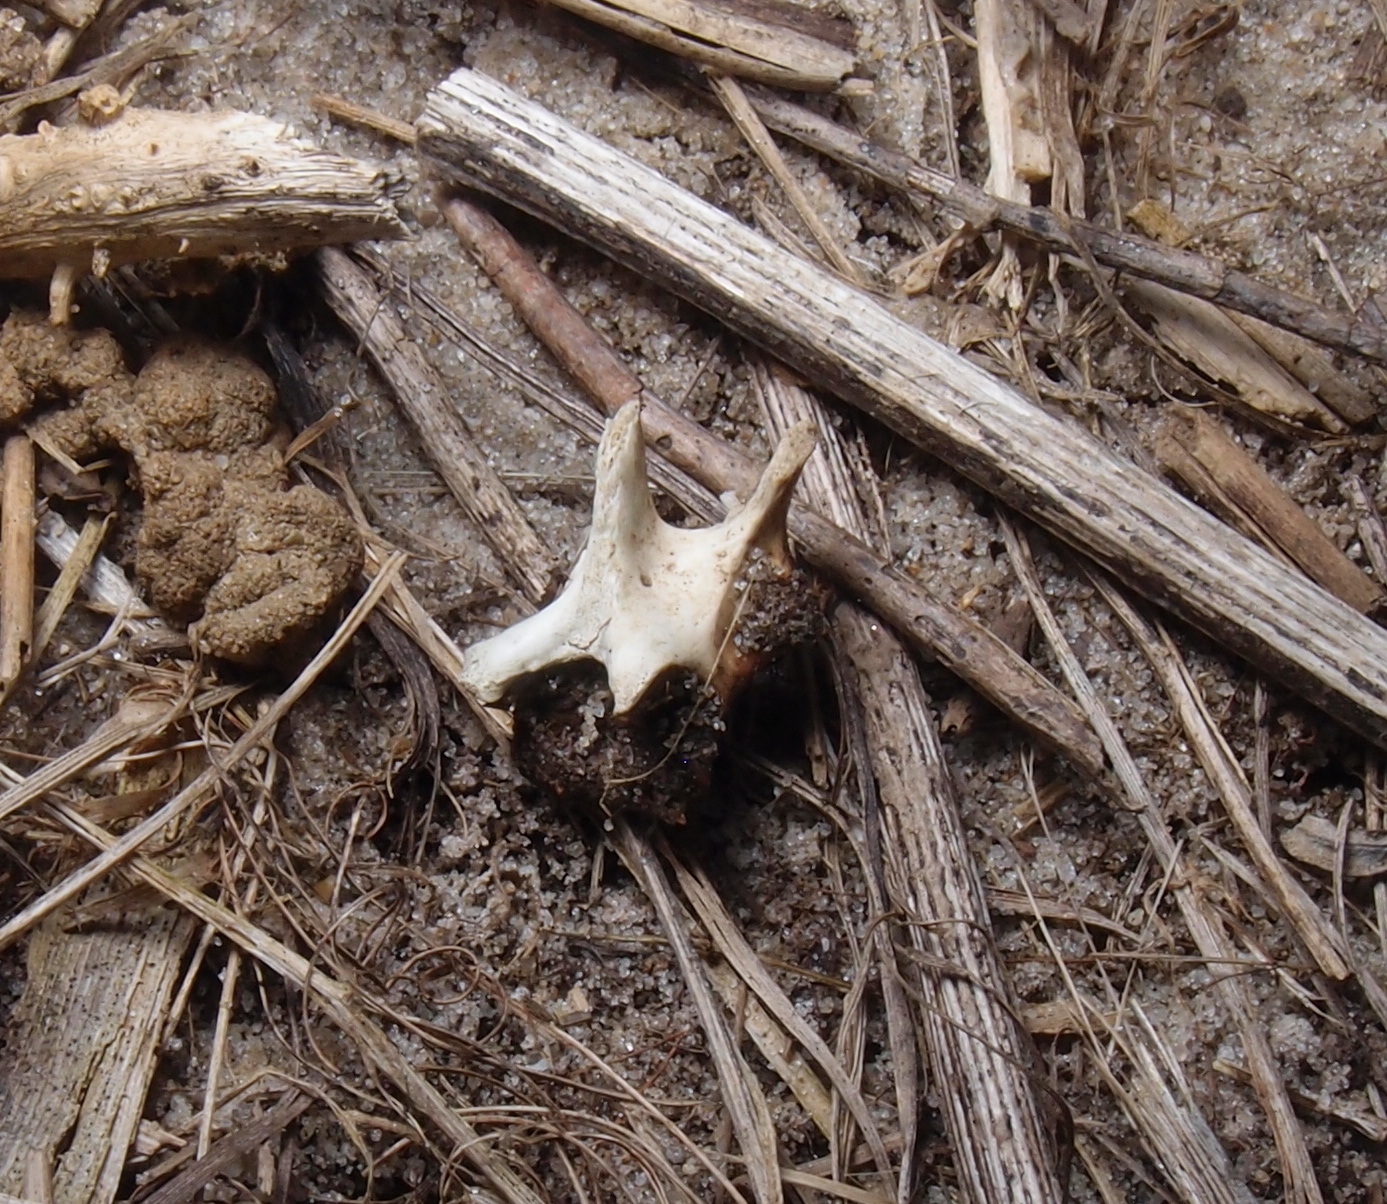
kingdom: Animalia
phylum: Chordata
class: Mammalia
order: Lagomorpha
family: Leporidae
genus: Sylvilagus
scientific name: Sylvilagus floridanus
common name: Eastern cottontail
